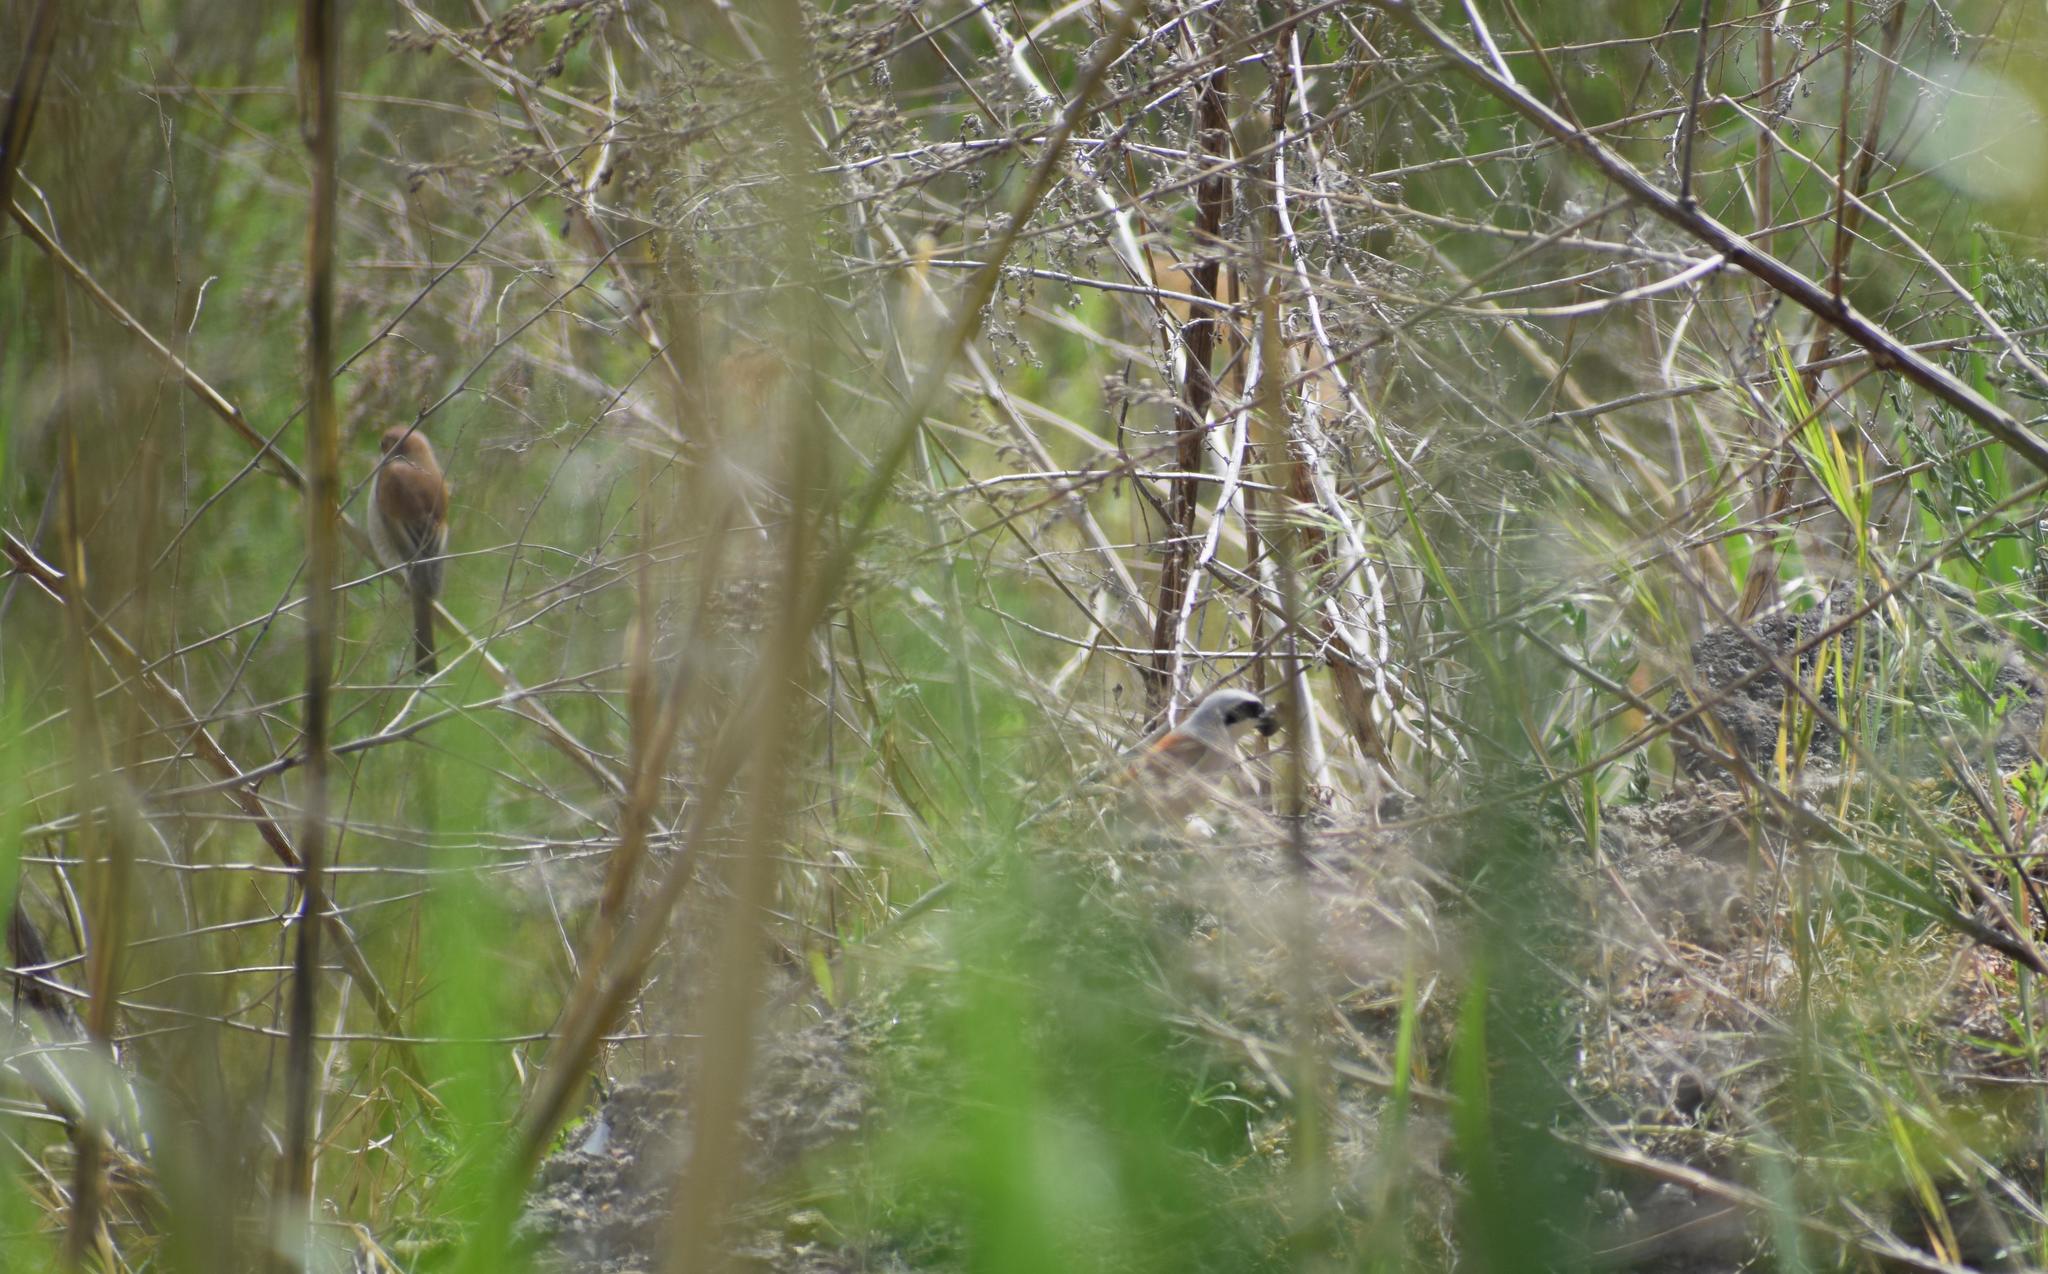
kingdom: Animalia
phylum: Chordata
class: Aves
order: Passeriformes
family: Laniidae
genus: Lanius
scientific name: Lanius collurio
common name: Red-backed shrike
